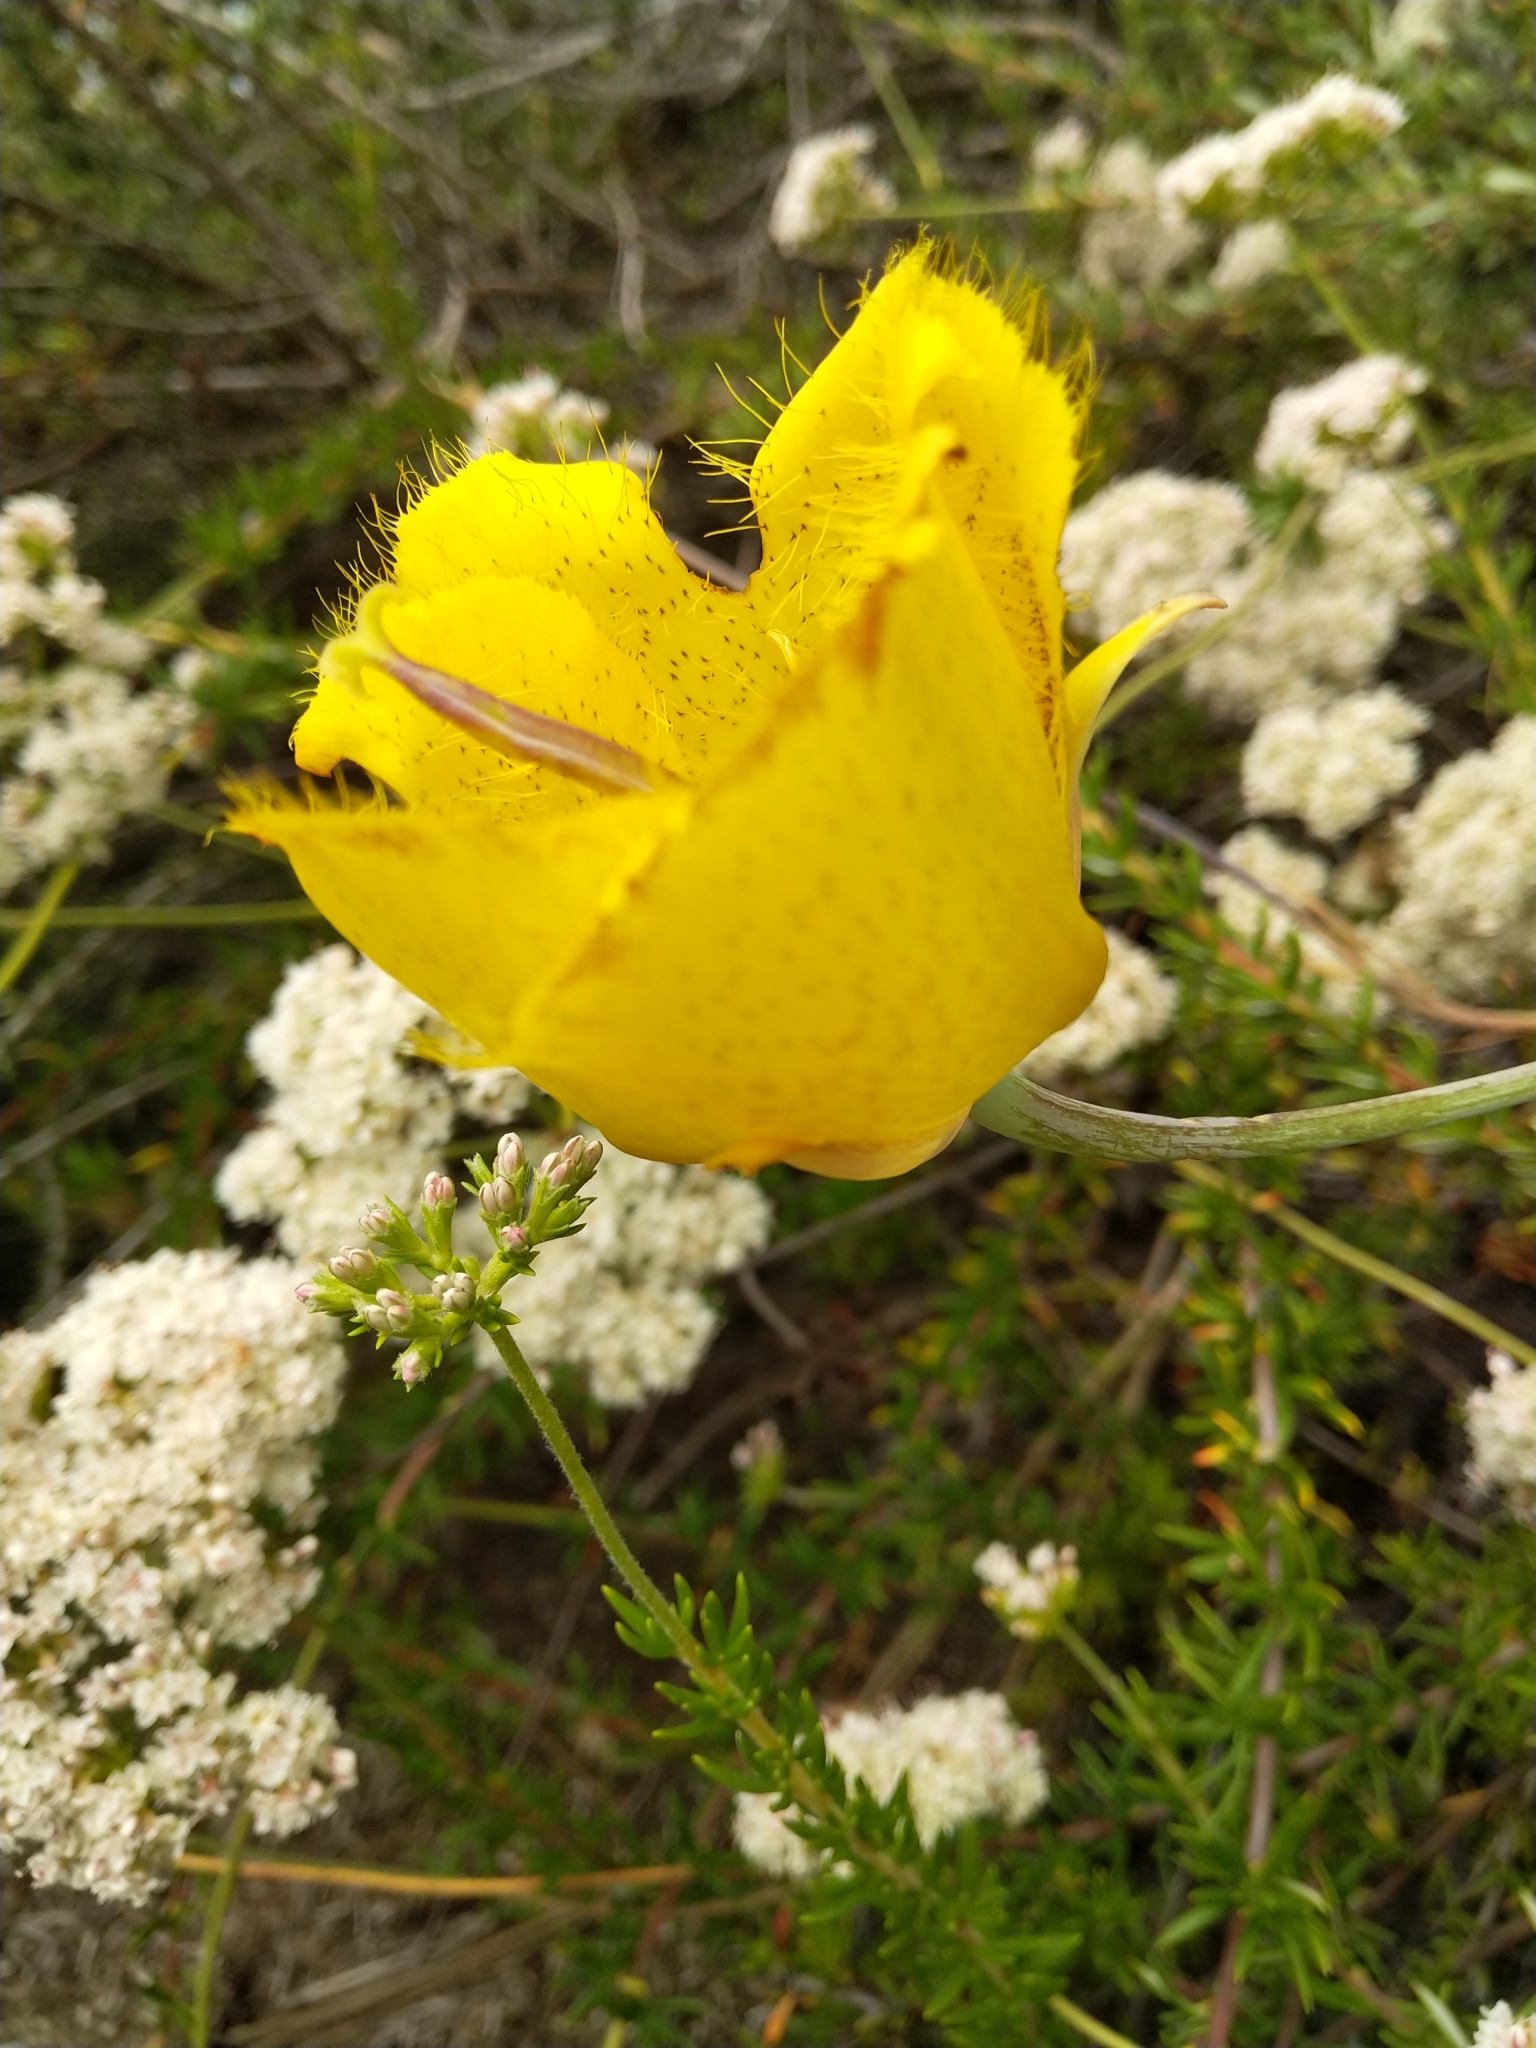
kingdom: Plantae
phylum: Tracheophyta
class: Liliopsida
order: Liliales
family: Liliaceae
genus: Calochortus
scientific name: Calochortus weedii
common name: Weed's mariposa-lily
